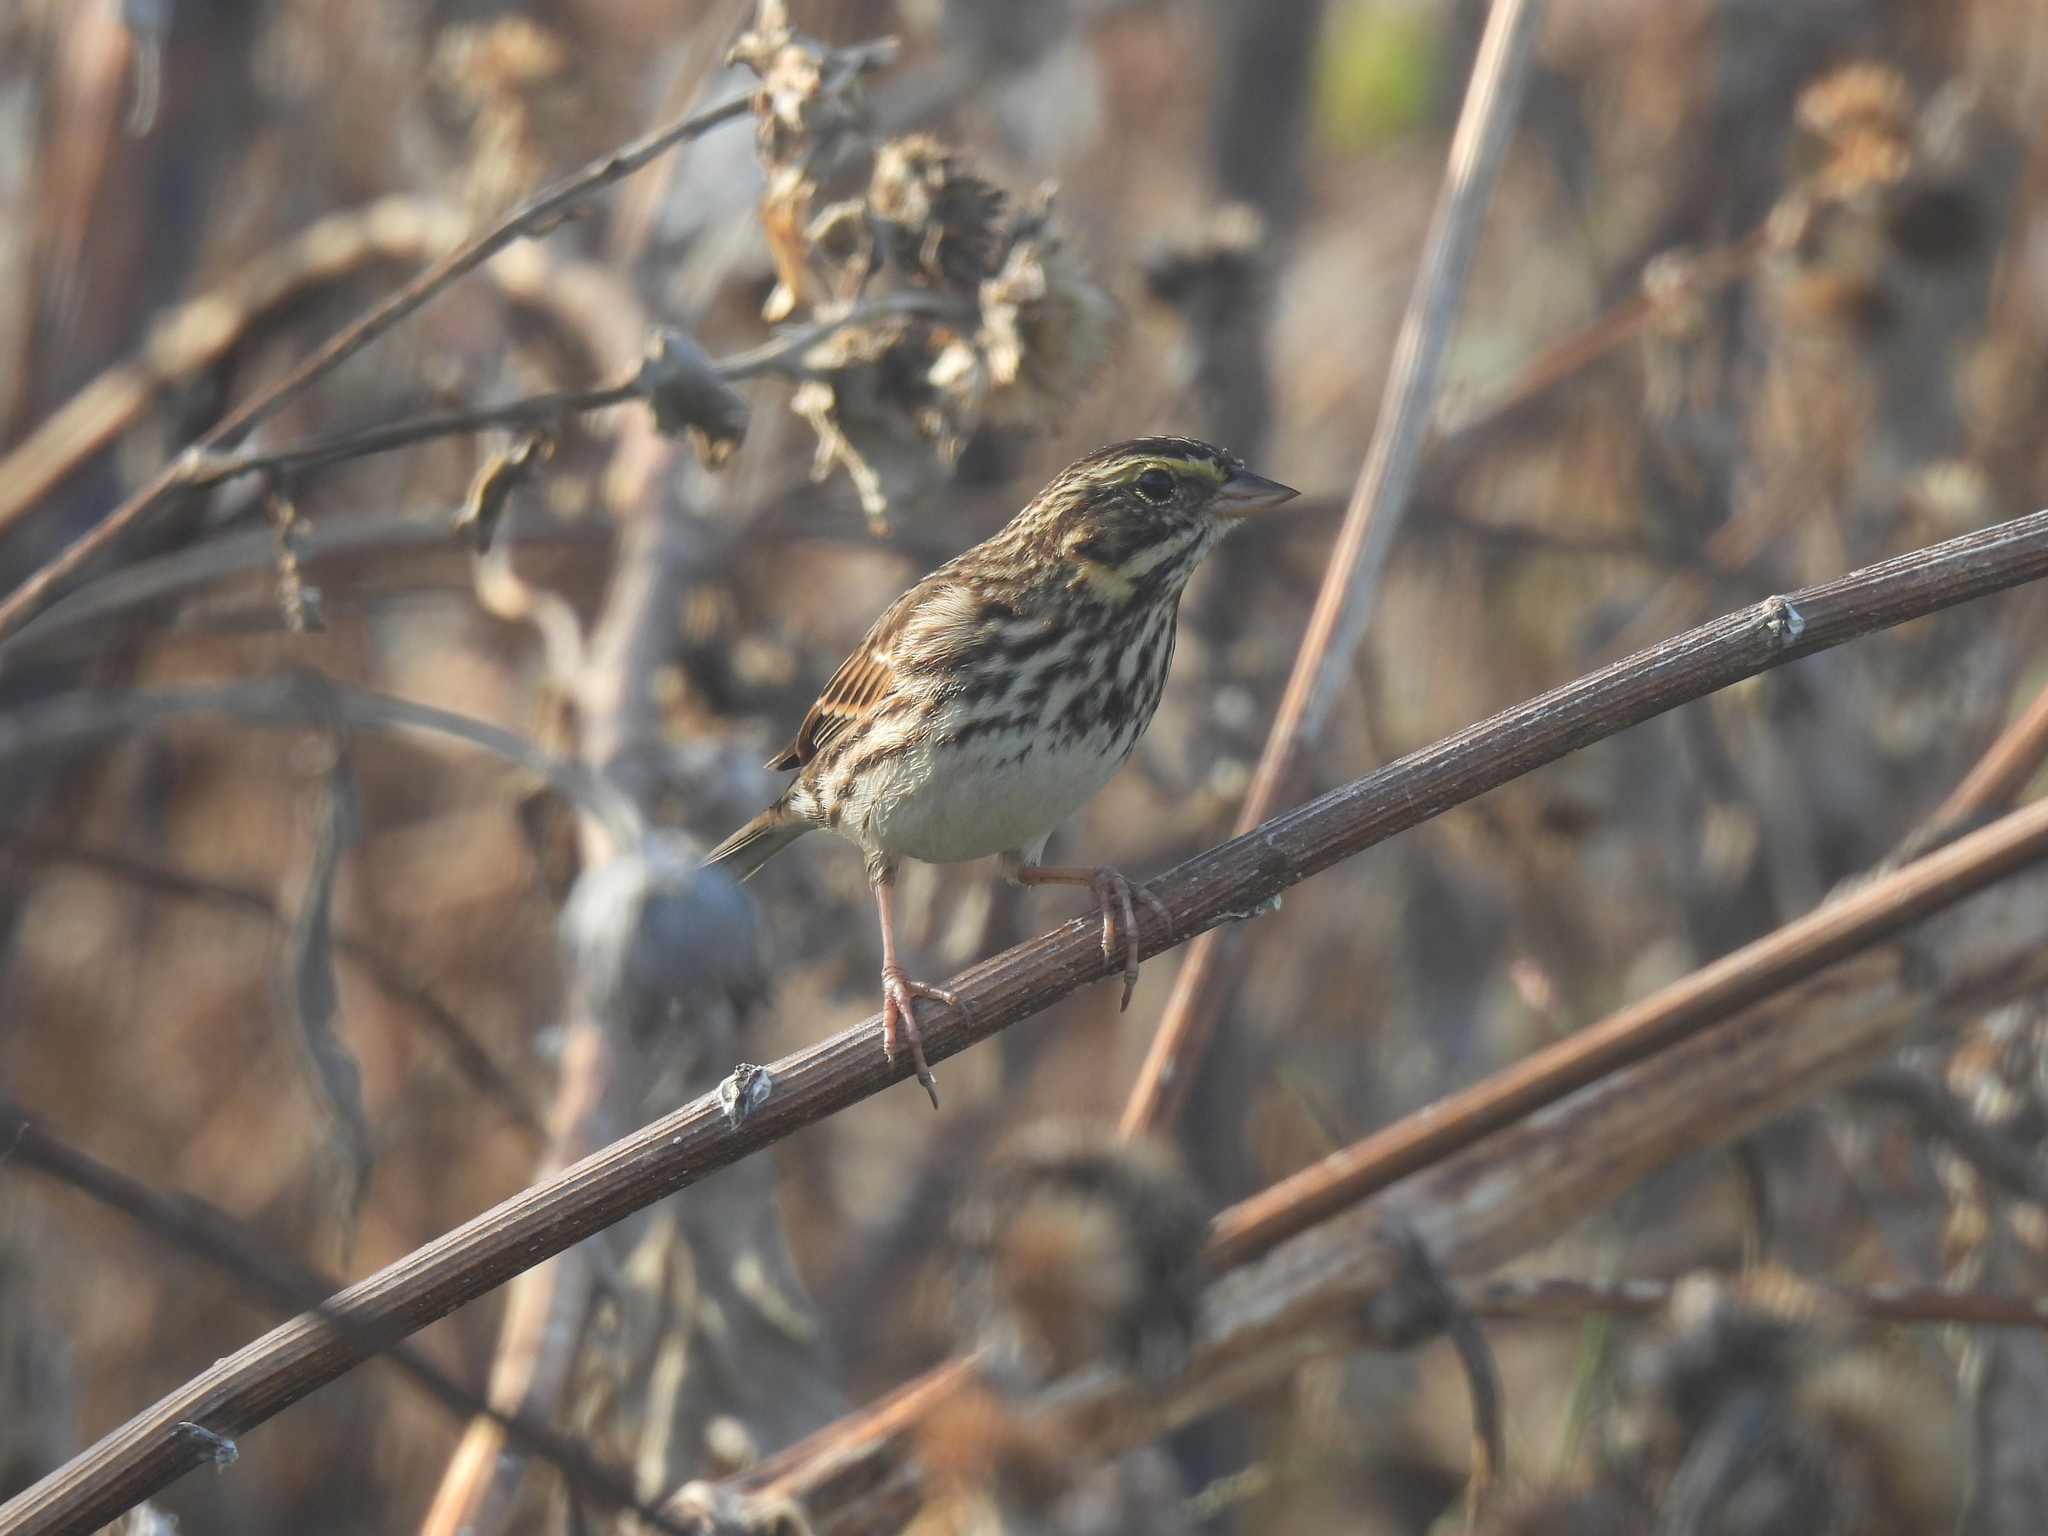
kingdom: Animalia
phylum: Chordata
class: Aves
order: Passeriformes
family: Passerellidae
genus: Passerculus
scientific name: Passerculus sandwichensis
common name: Savannah sparrow
